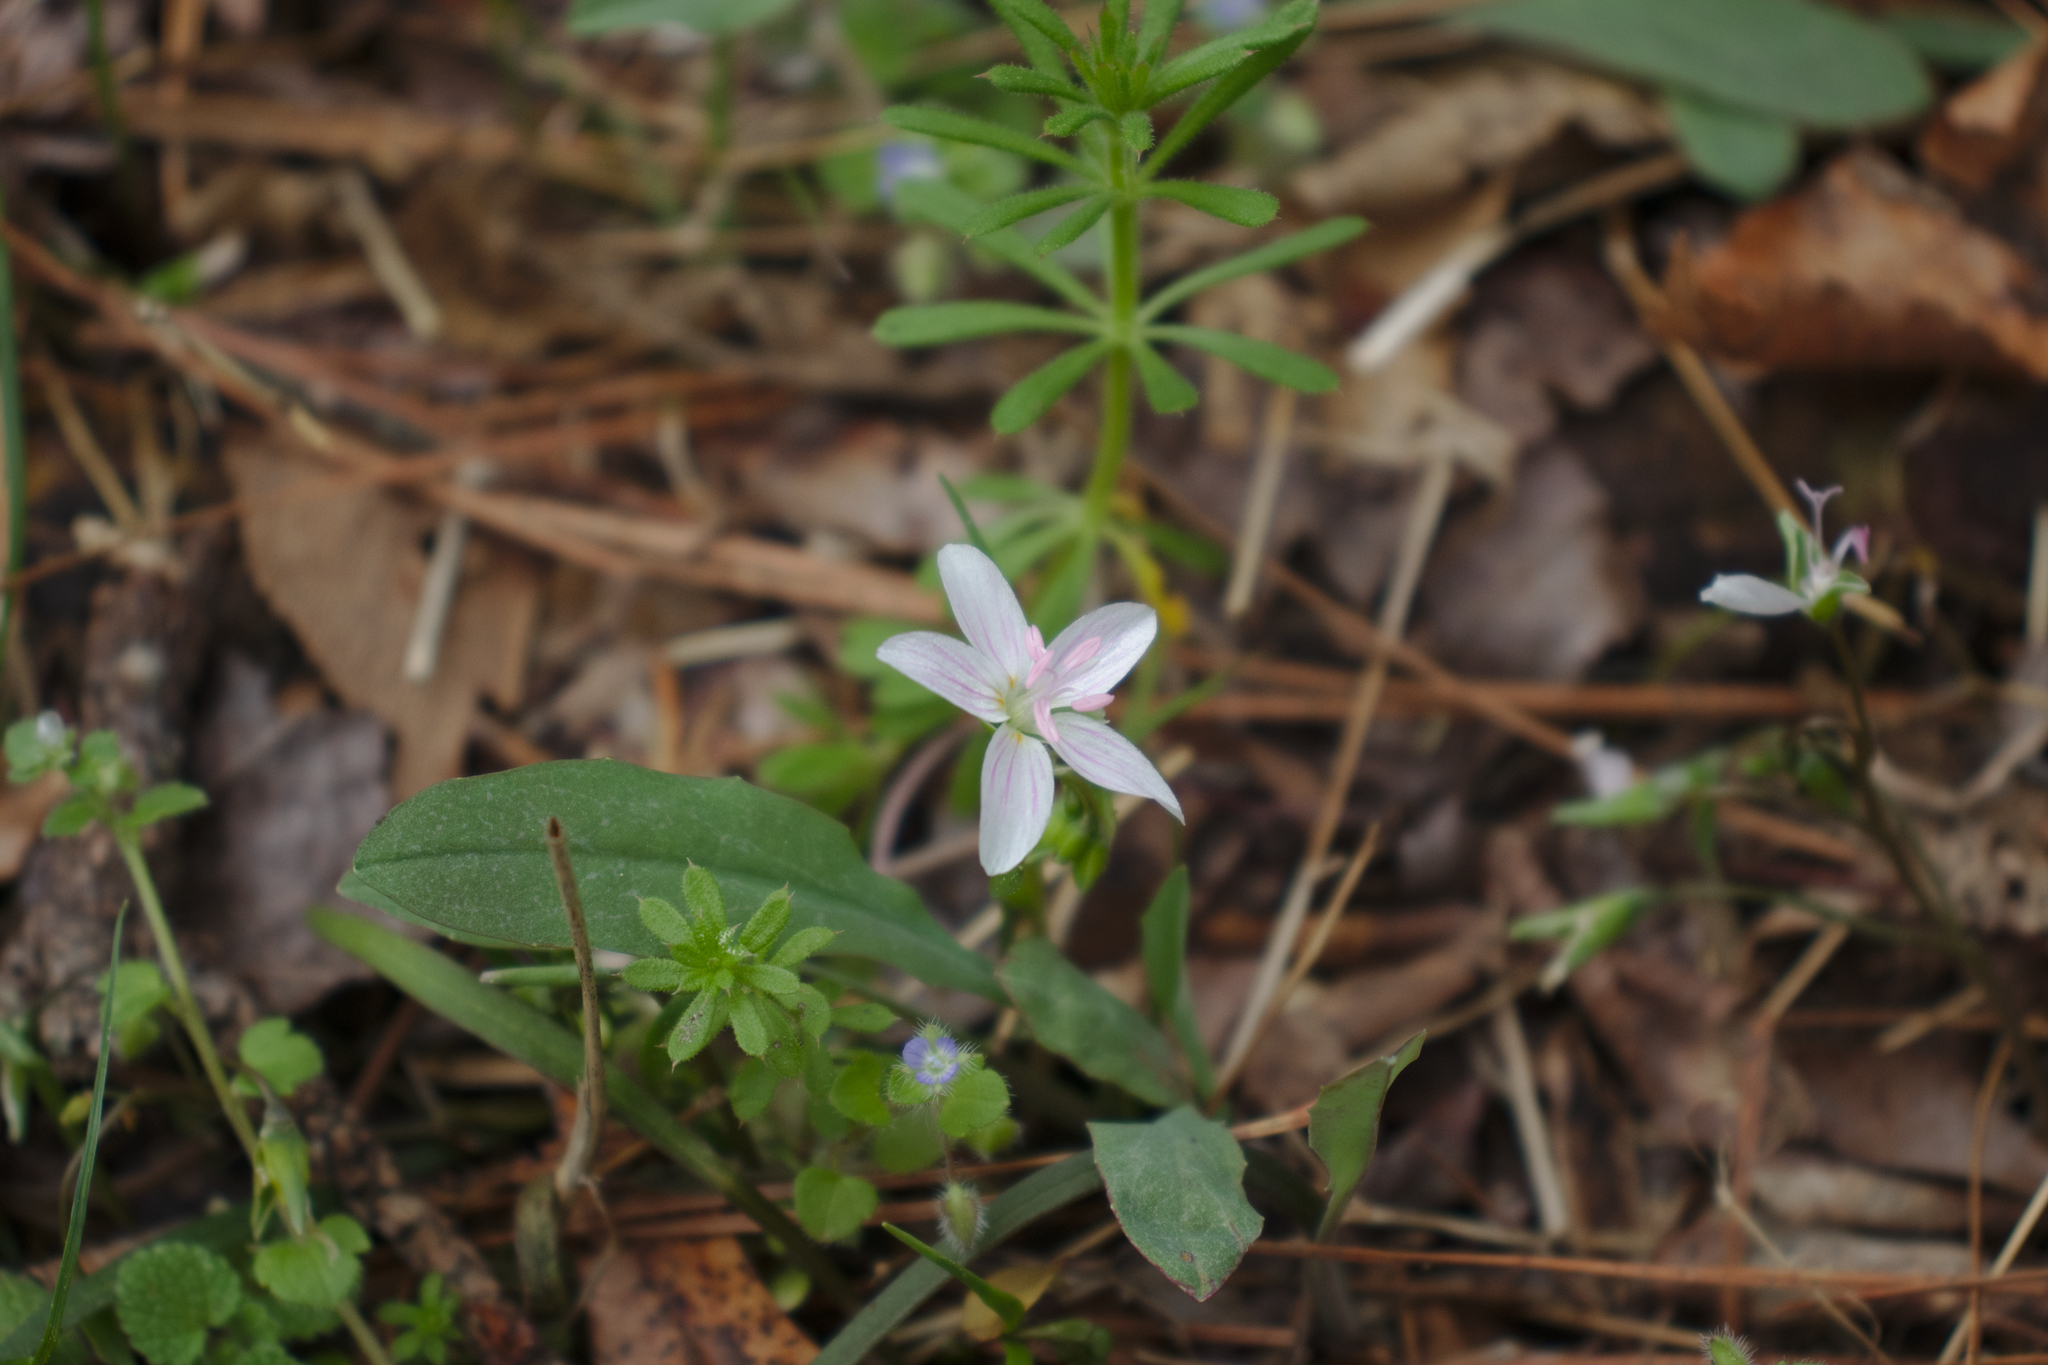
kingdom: Plantae
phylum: Tracheophyta
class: Magnoliopsida
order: Caryophyllales
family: Montiaceae
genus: Claytonia
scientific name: Claytonia virginica
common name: Virginia springbeauty
